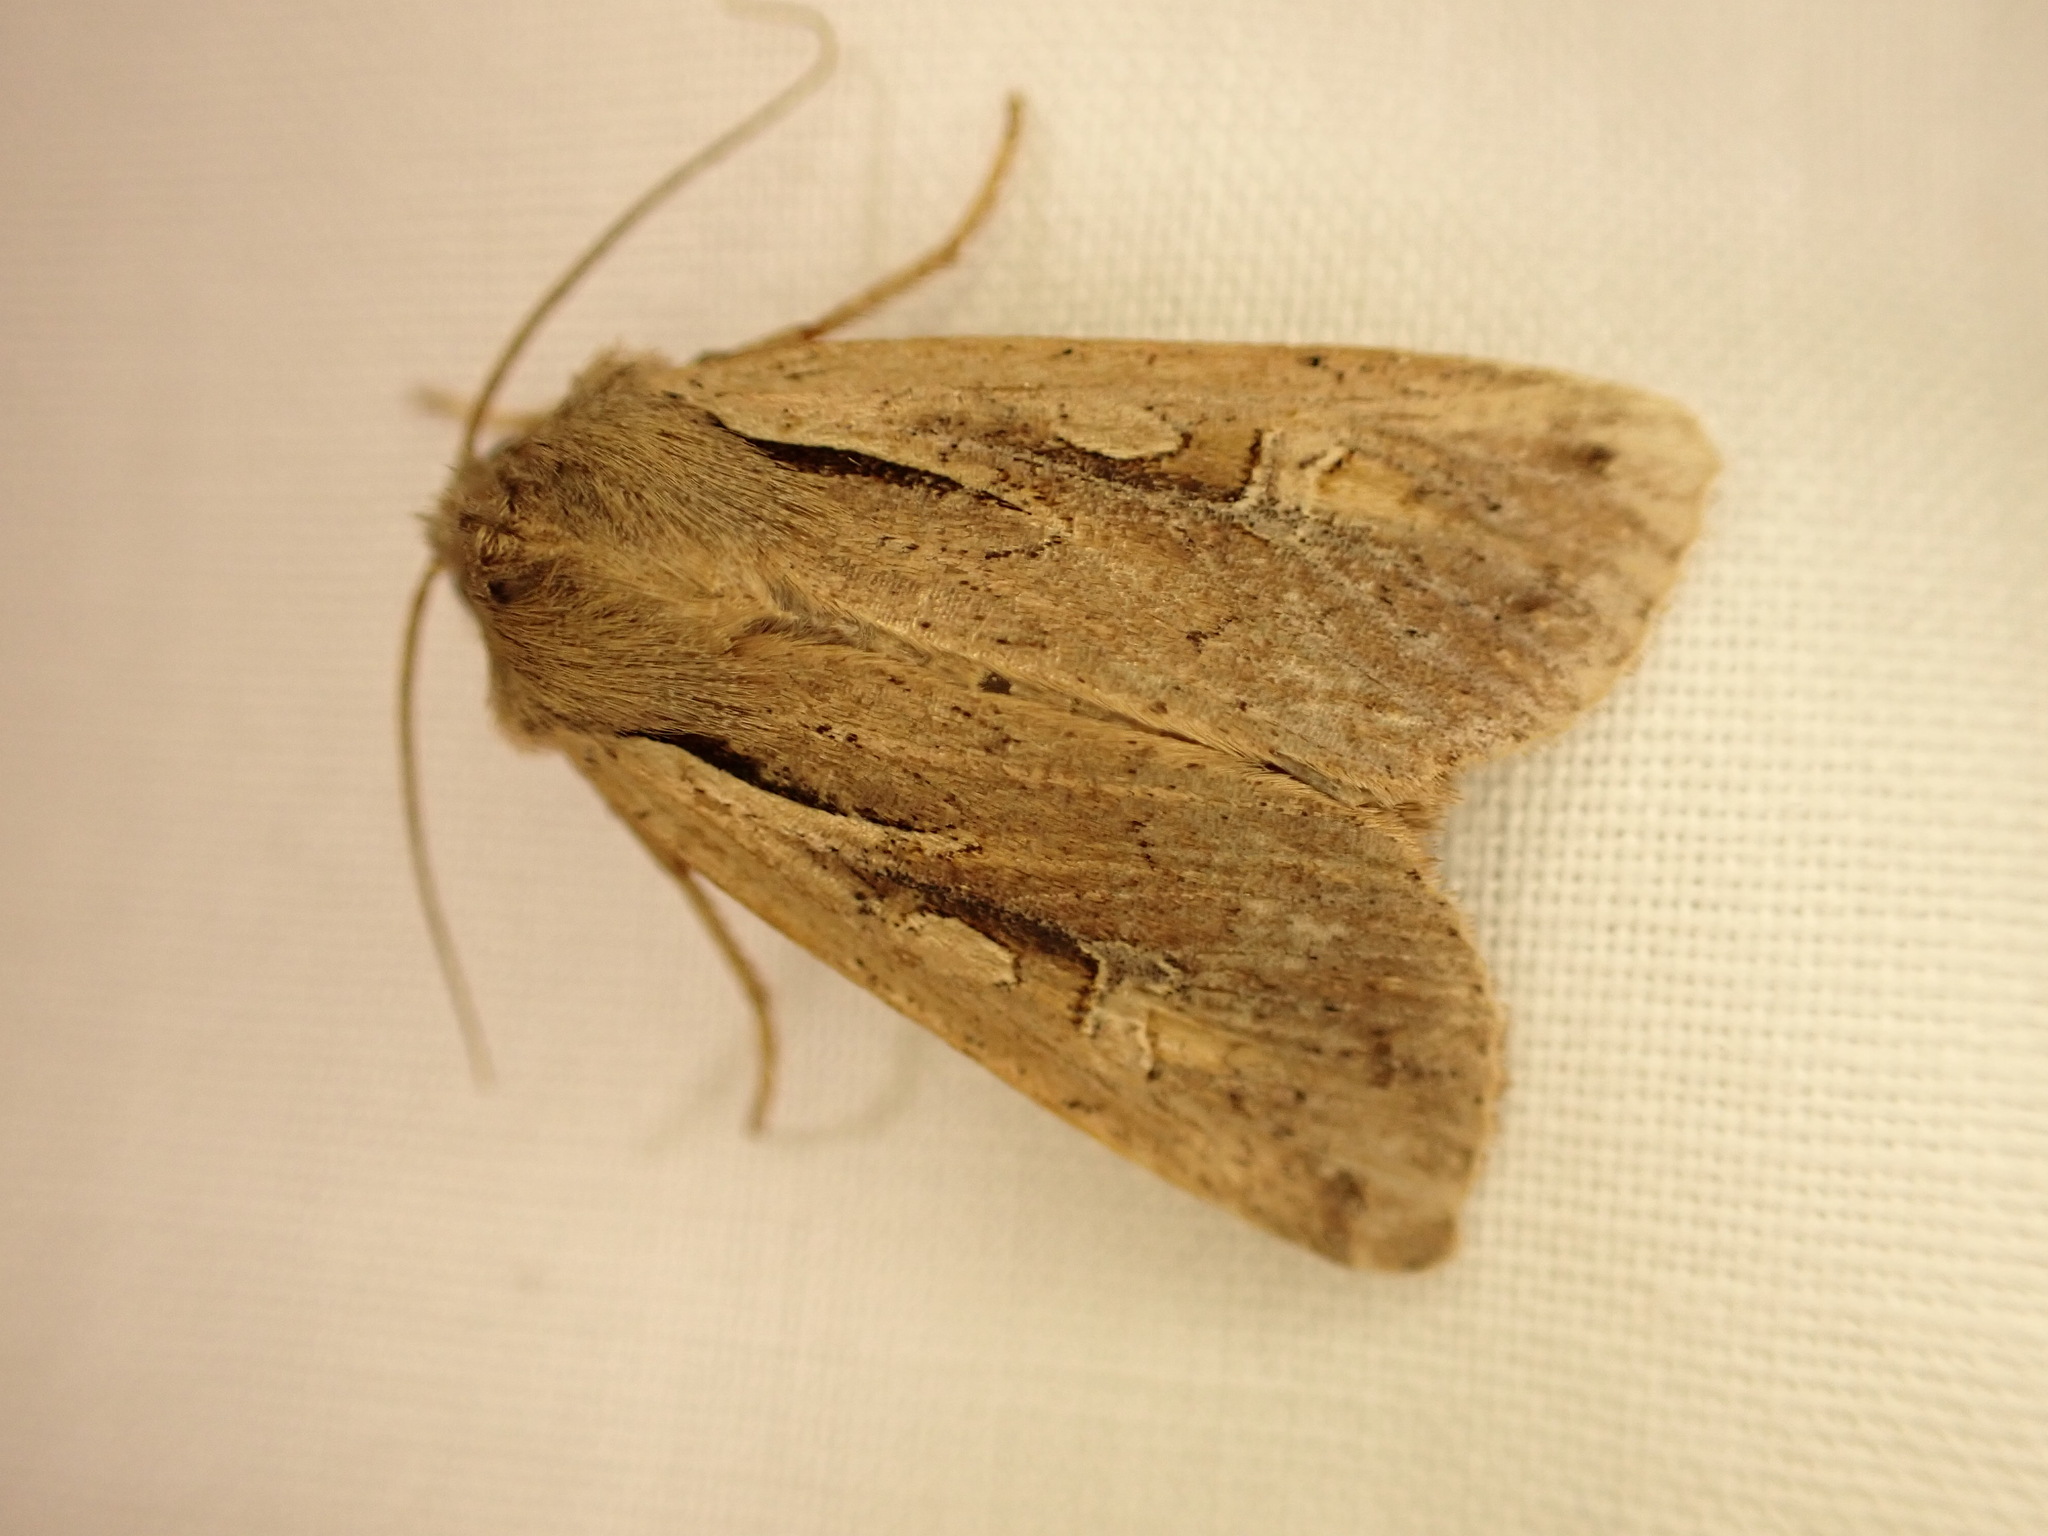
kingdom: Animalia
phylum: Arthropoda
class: Insecta
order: Lepidoptera
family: Noctuidae
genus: Ichneutica
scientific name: Ichneutica atristriga
